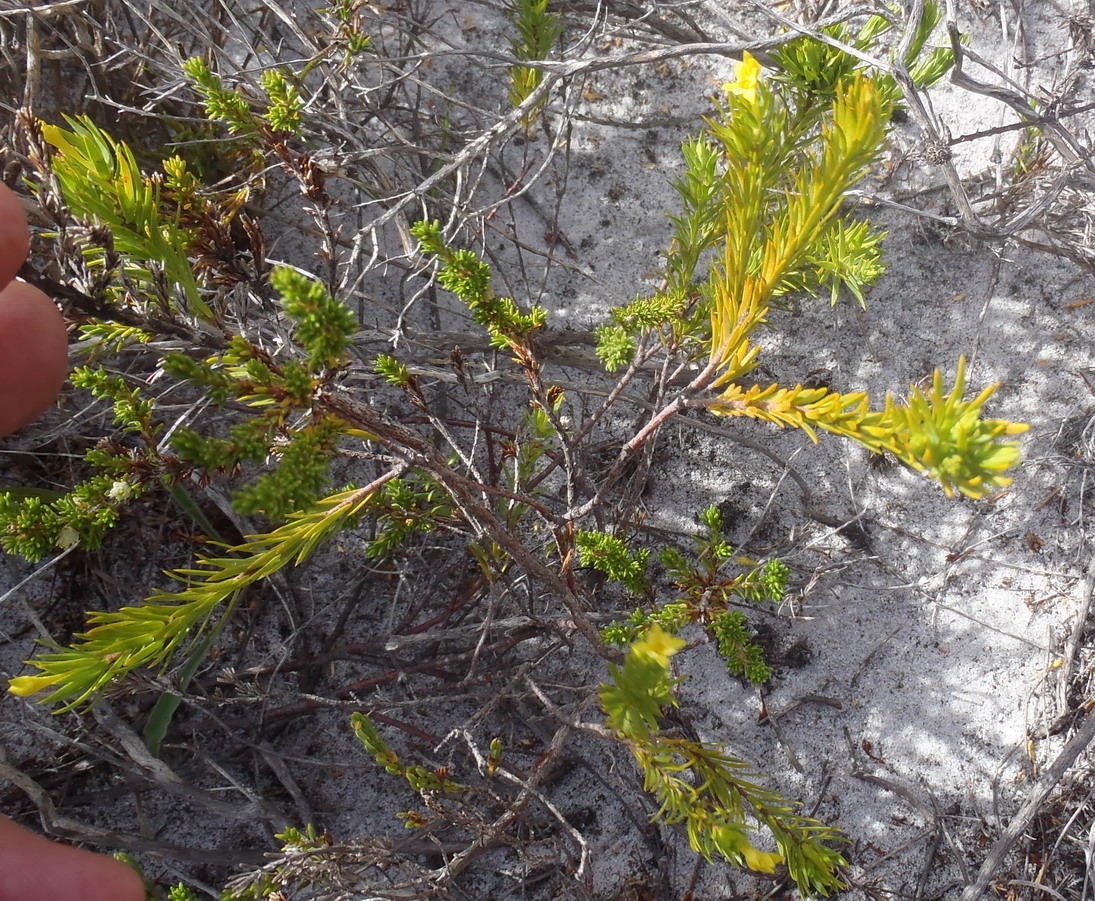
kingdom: Plantae
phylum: Tracheophyta
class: Magnoliopsida
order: Malvales
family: Thymelaeaceae
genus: Gnidia
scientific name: Gnidia simplex
